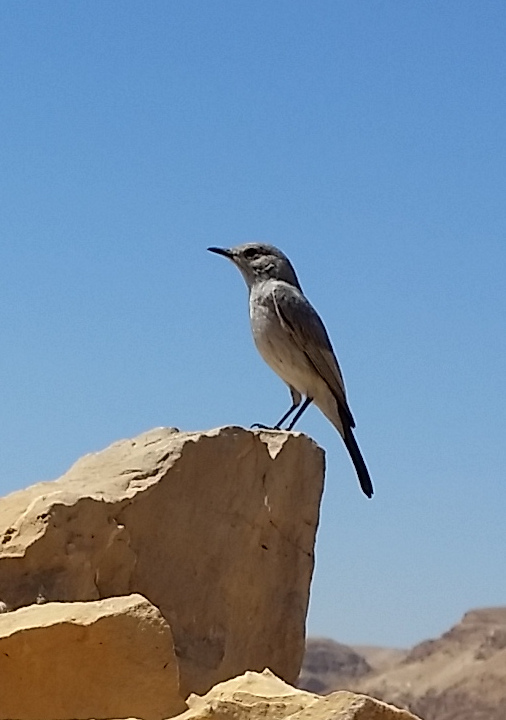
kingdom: Animalia
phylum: Chordata
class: Aves
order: Passeriformes
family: Muscicapidae
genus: Oenanthe
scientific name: Oenanthe melanura
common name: Blackstart
